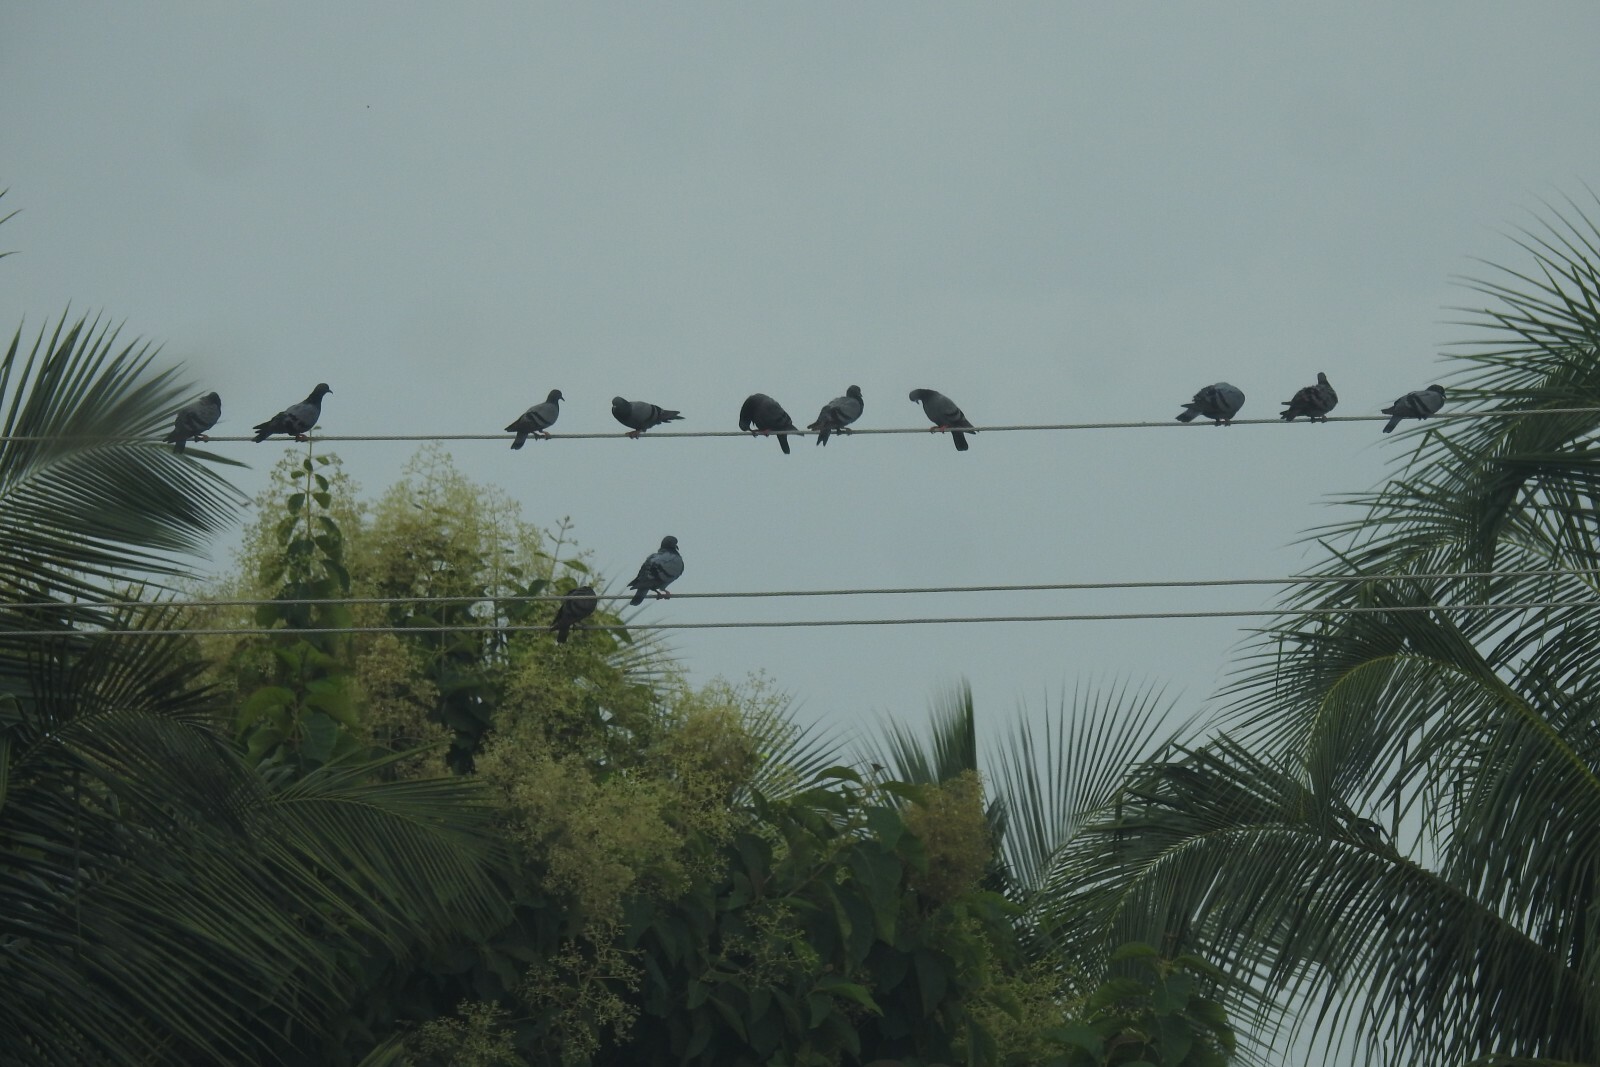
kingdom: Animalia
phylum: Chordata
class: Aves
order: Columbiformes
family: Columbidae
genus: Columba
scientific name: Columba livia
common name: Rock pigeon
